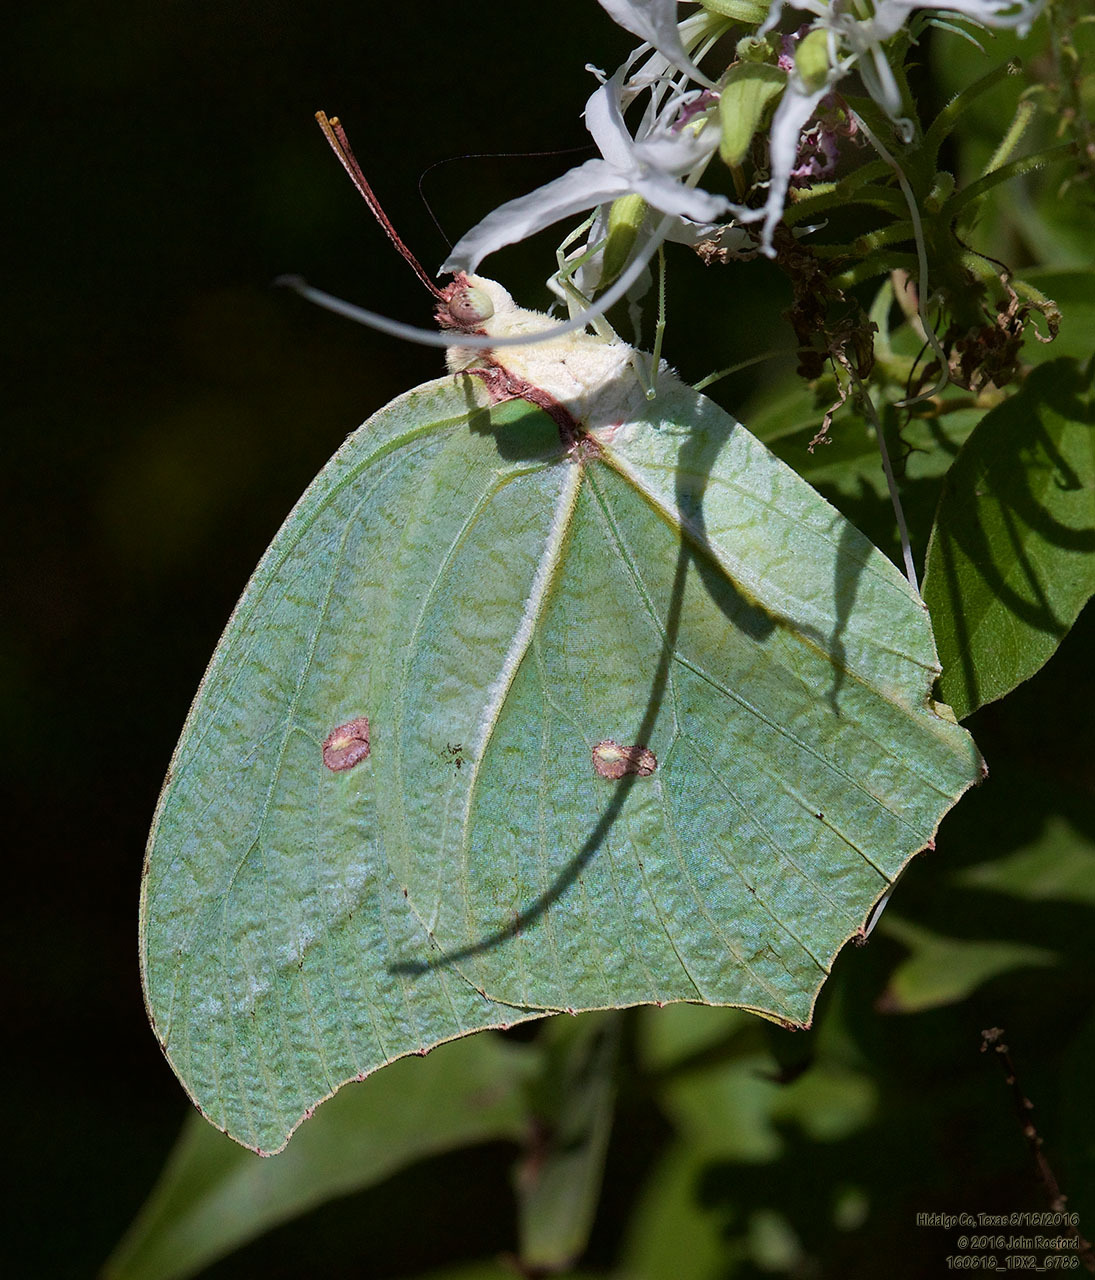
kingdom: Animalia
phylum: Arthropoda
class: Insecta
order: Lepidoptera
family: Pieridae
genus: Anteos
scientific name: Anteos maerula
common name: Angled sulphur
